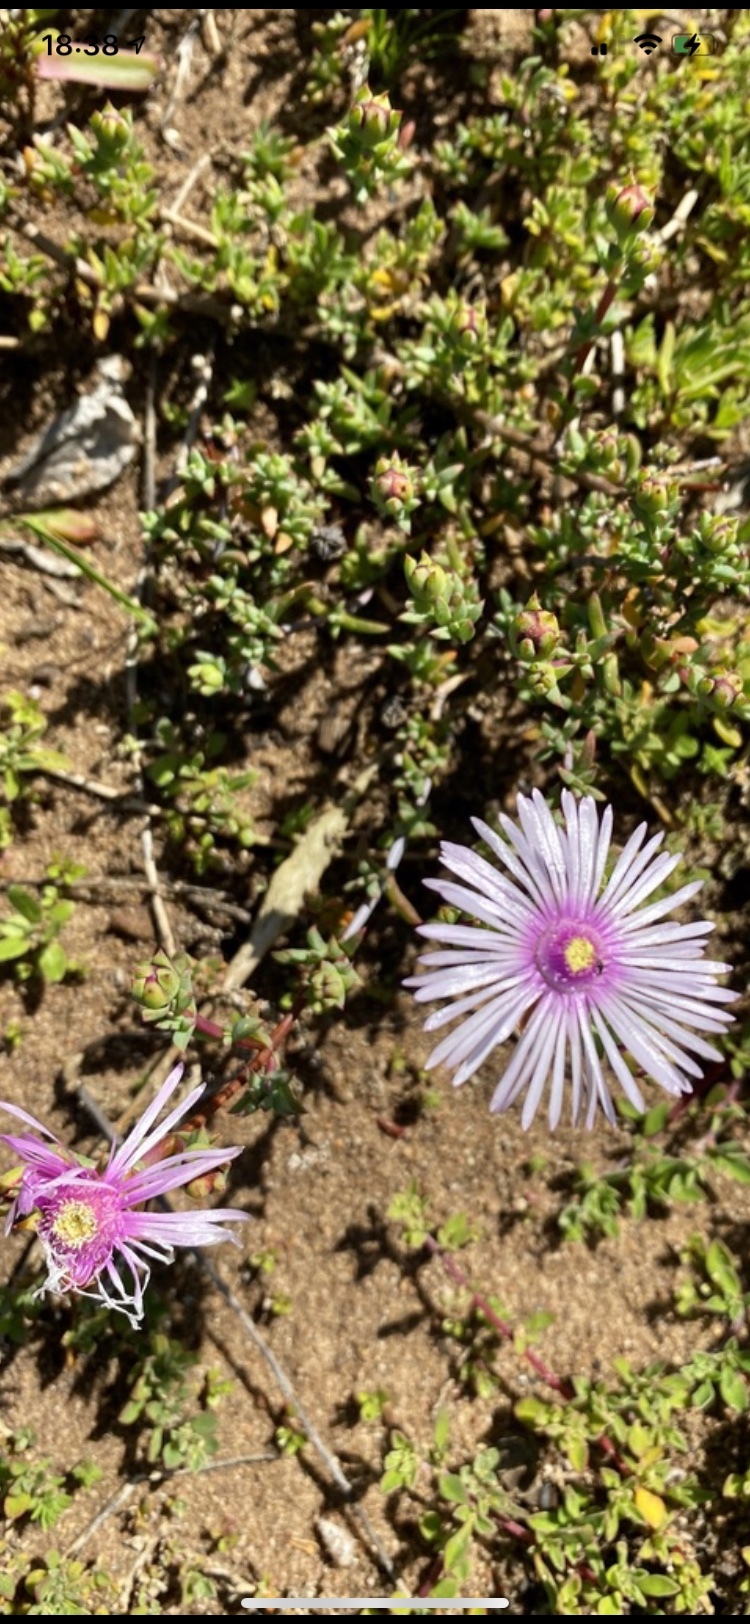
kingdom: Plantae
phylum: Tracheophyta
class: Magnoliopsida
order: Caryophyllales
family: Aizoaceae
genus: Lampranthus
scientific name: Lampranthus elegans
